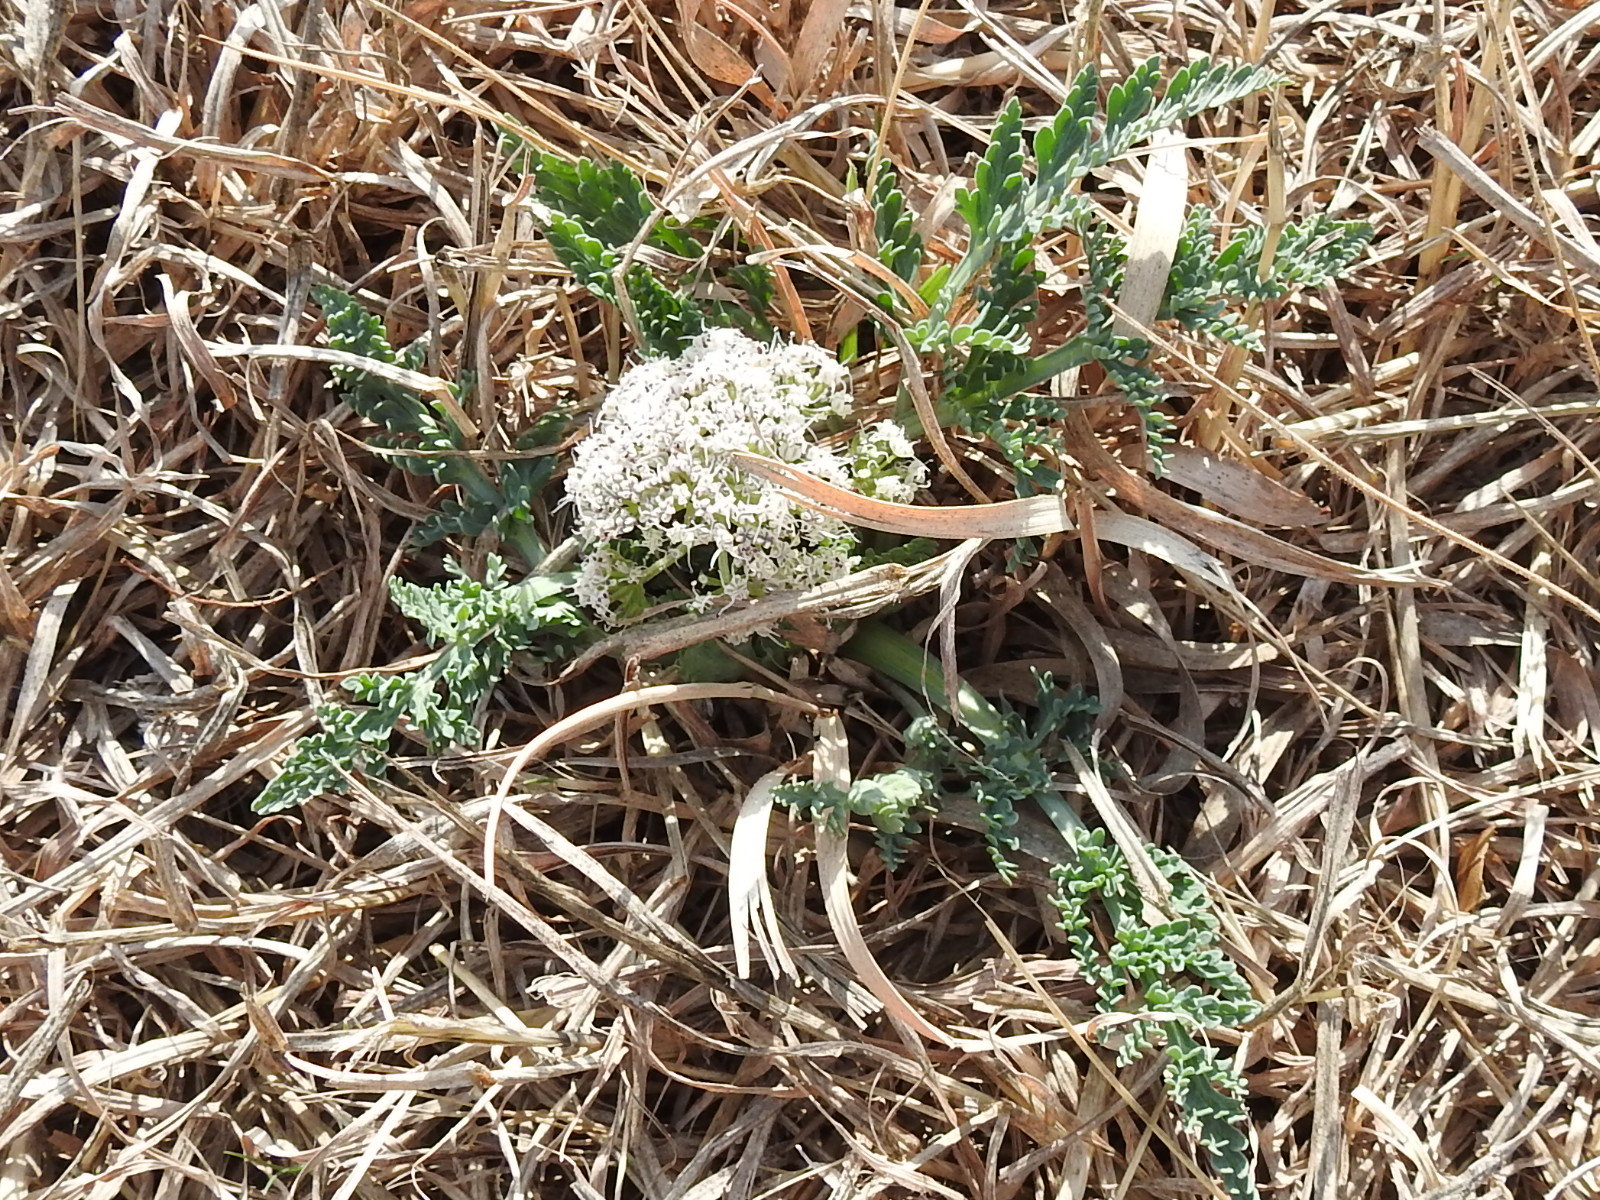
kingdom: Plantae
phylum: Tracheophyta
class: Magnoliopsida
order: Apiales
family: Apiaceae
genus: Vesper
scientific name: Vesper macrorhizus
